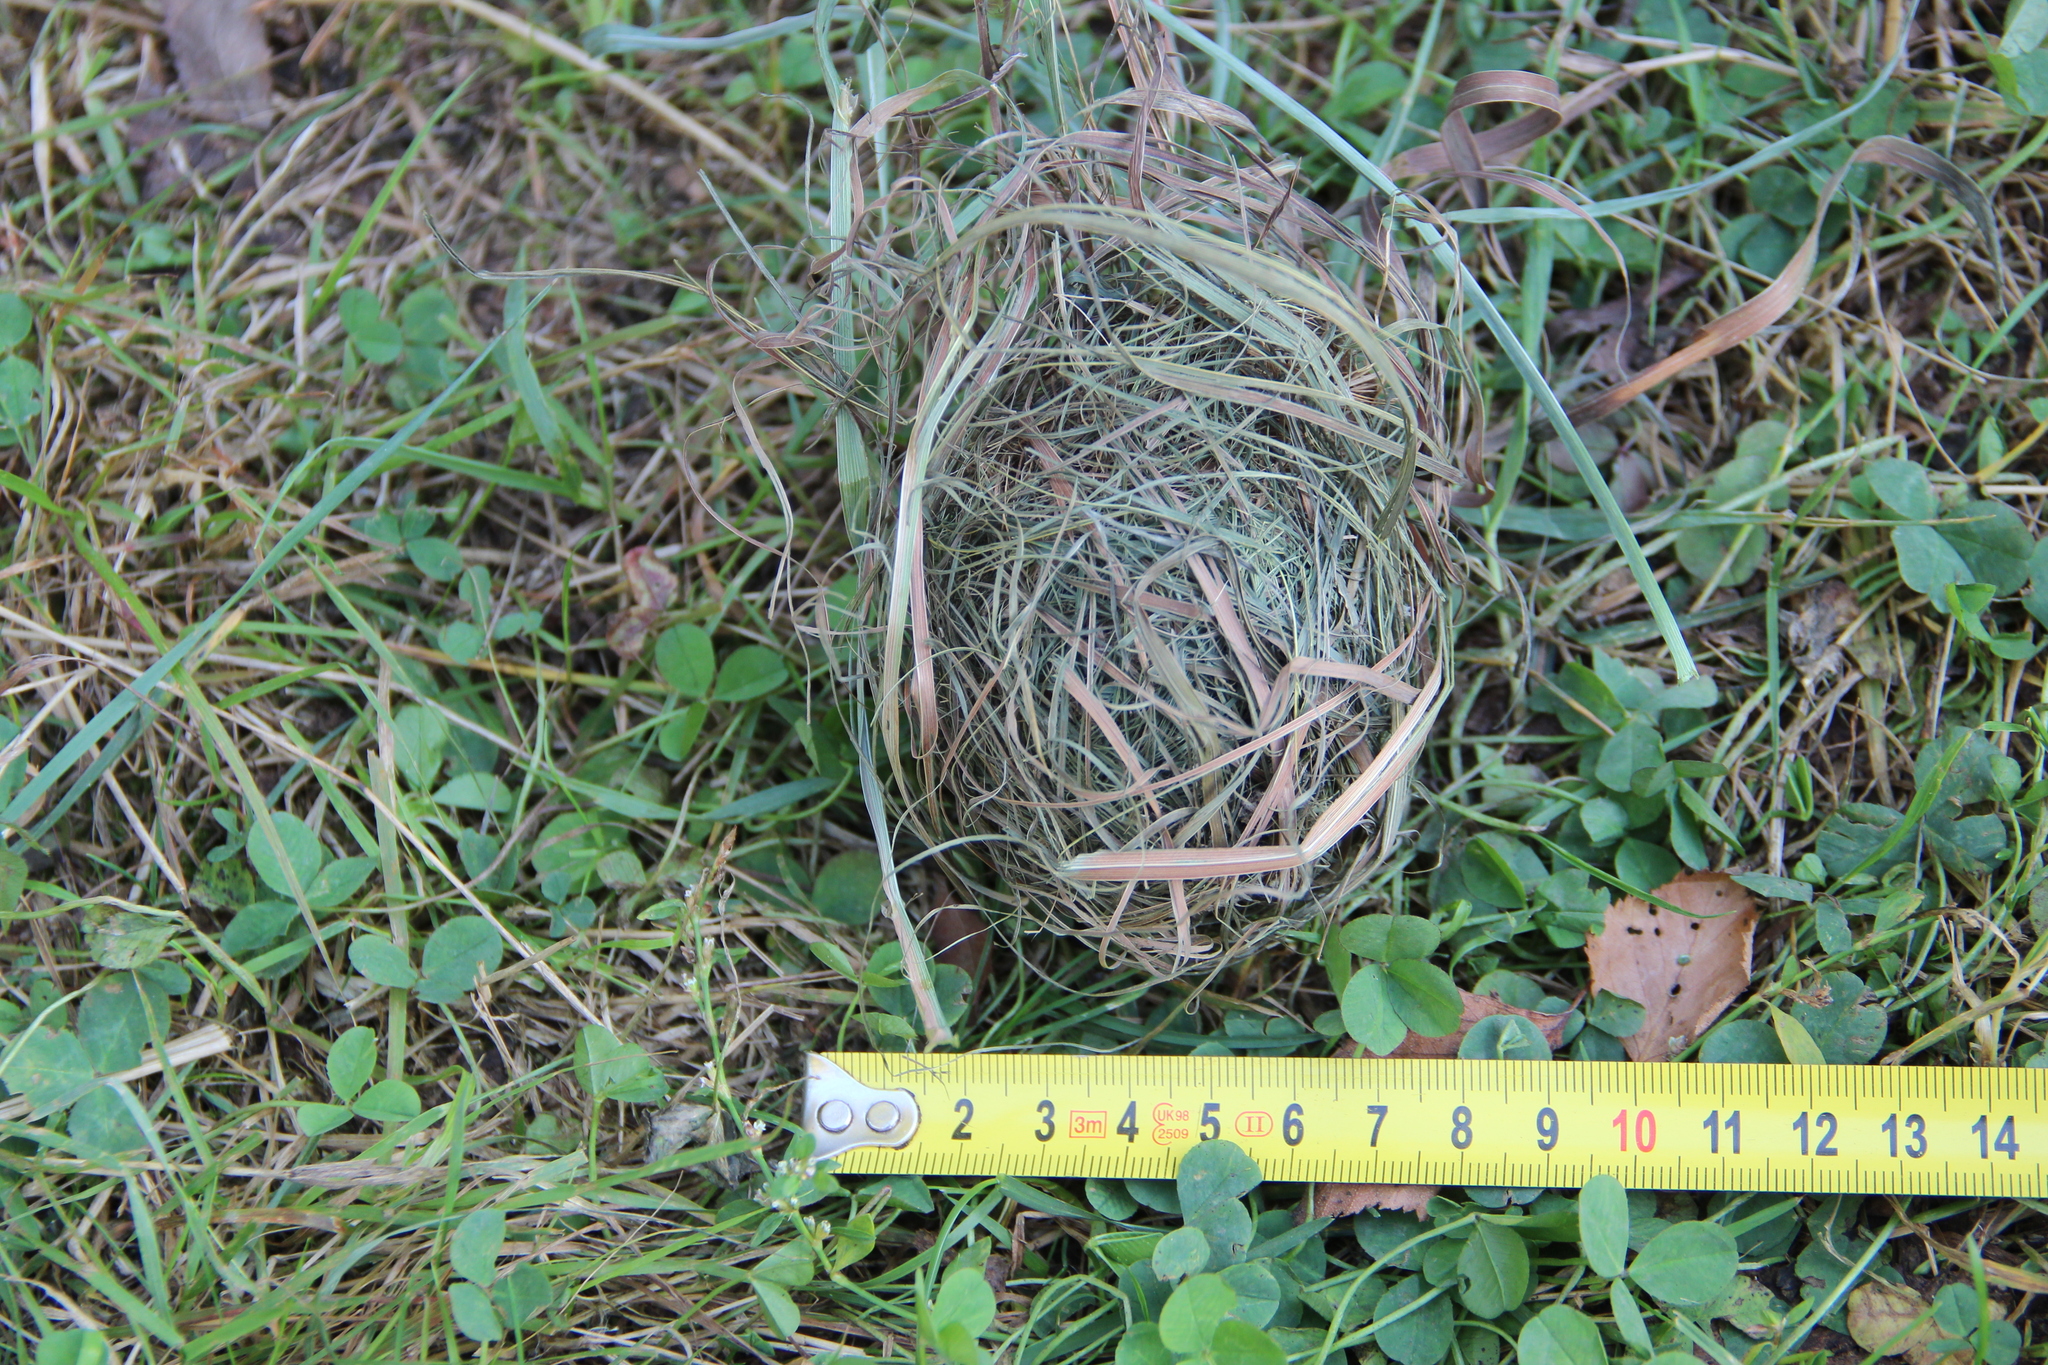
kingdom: Animalia
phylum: Chordata
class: Mammalia
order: Rodentia
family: Muridae
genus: Micromys
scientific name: Micromys minutus
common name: Harvest mouse
